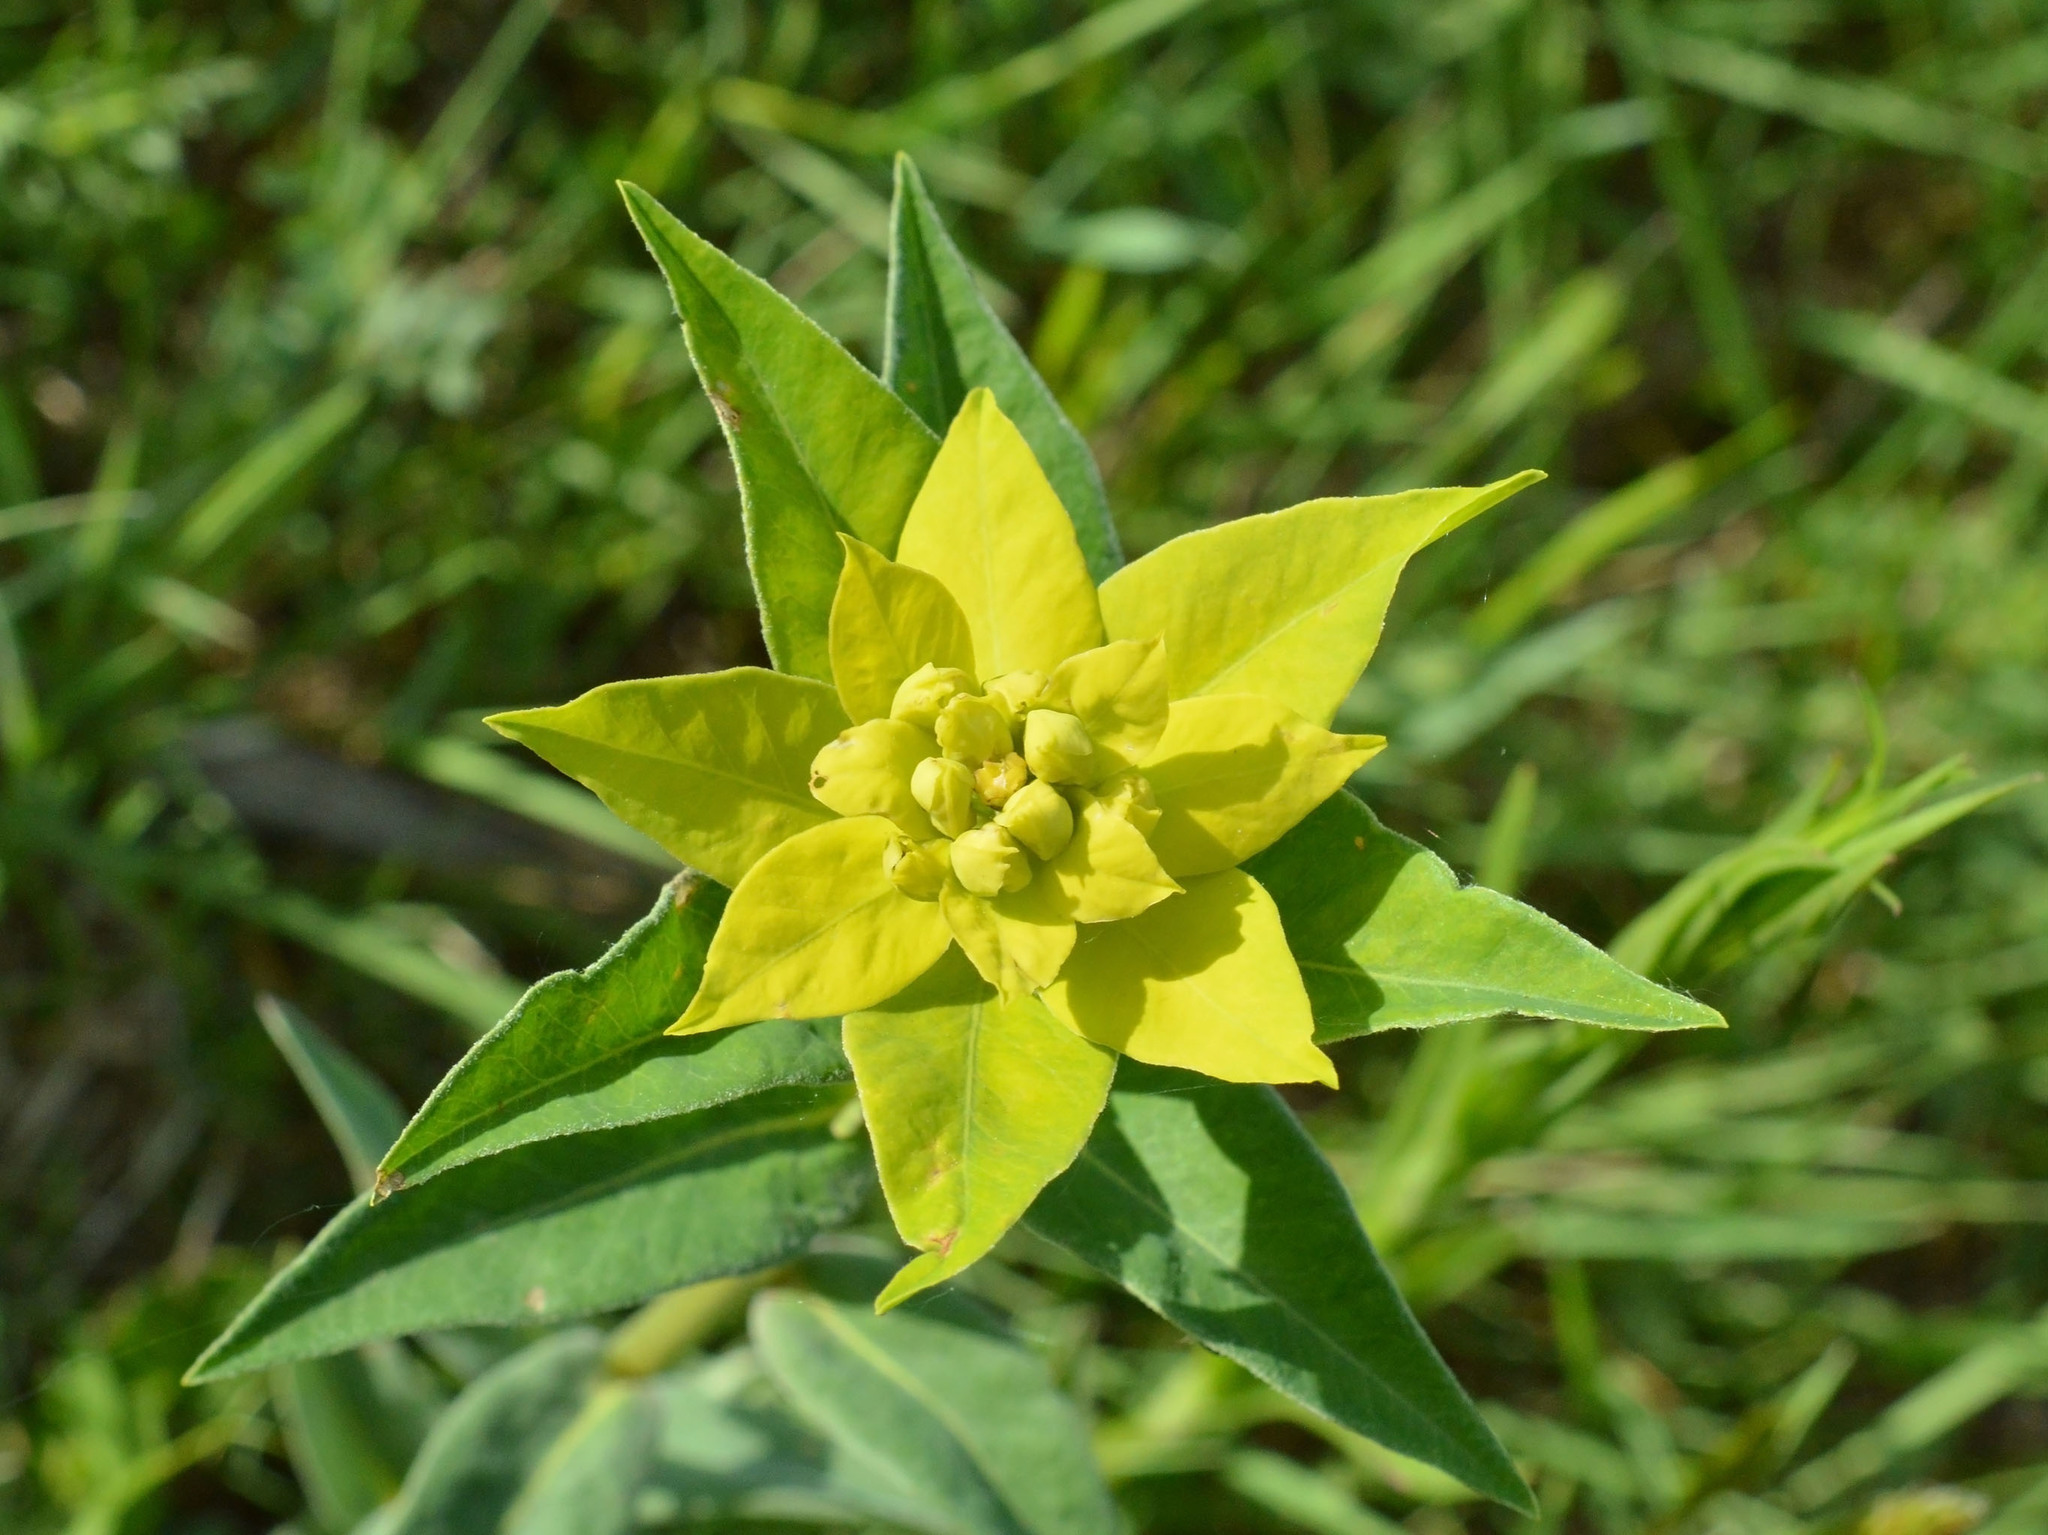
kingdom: Plantae
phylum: Tracheophyta
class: Magnoliopsida
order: Malpighiales
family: Euphorbiaceae
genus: Euphorbia
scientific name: Euphorbia salicifolia
